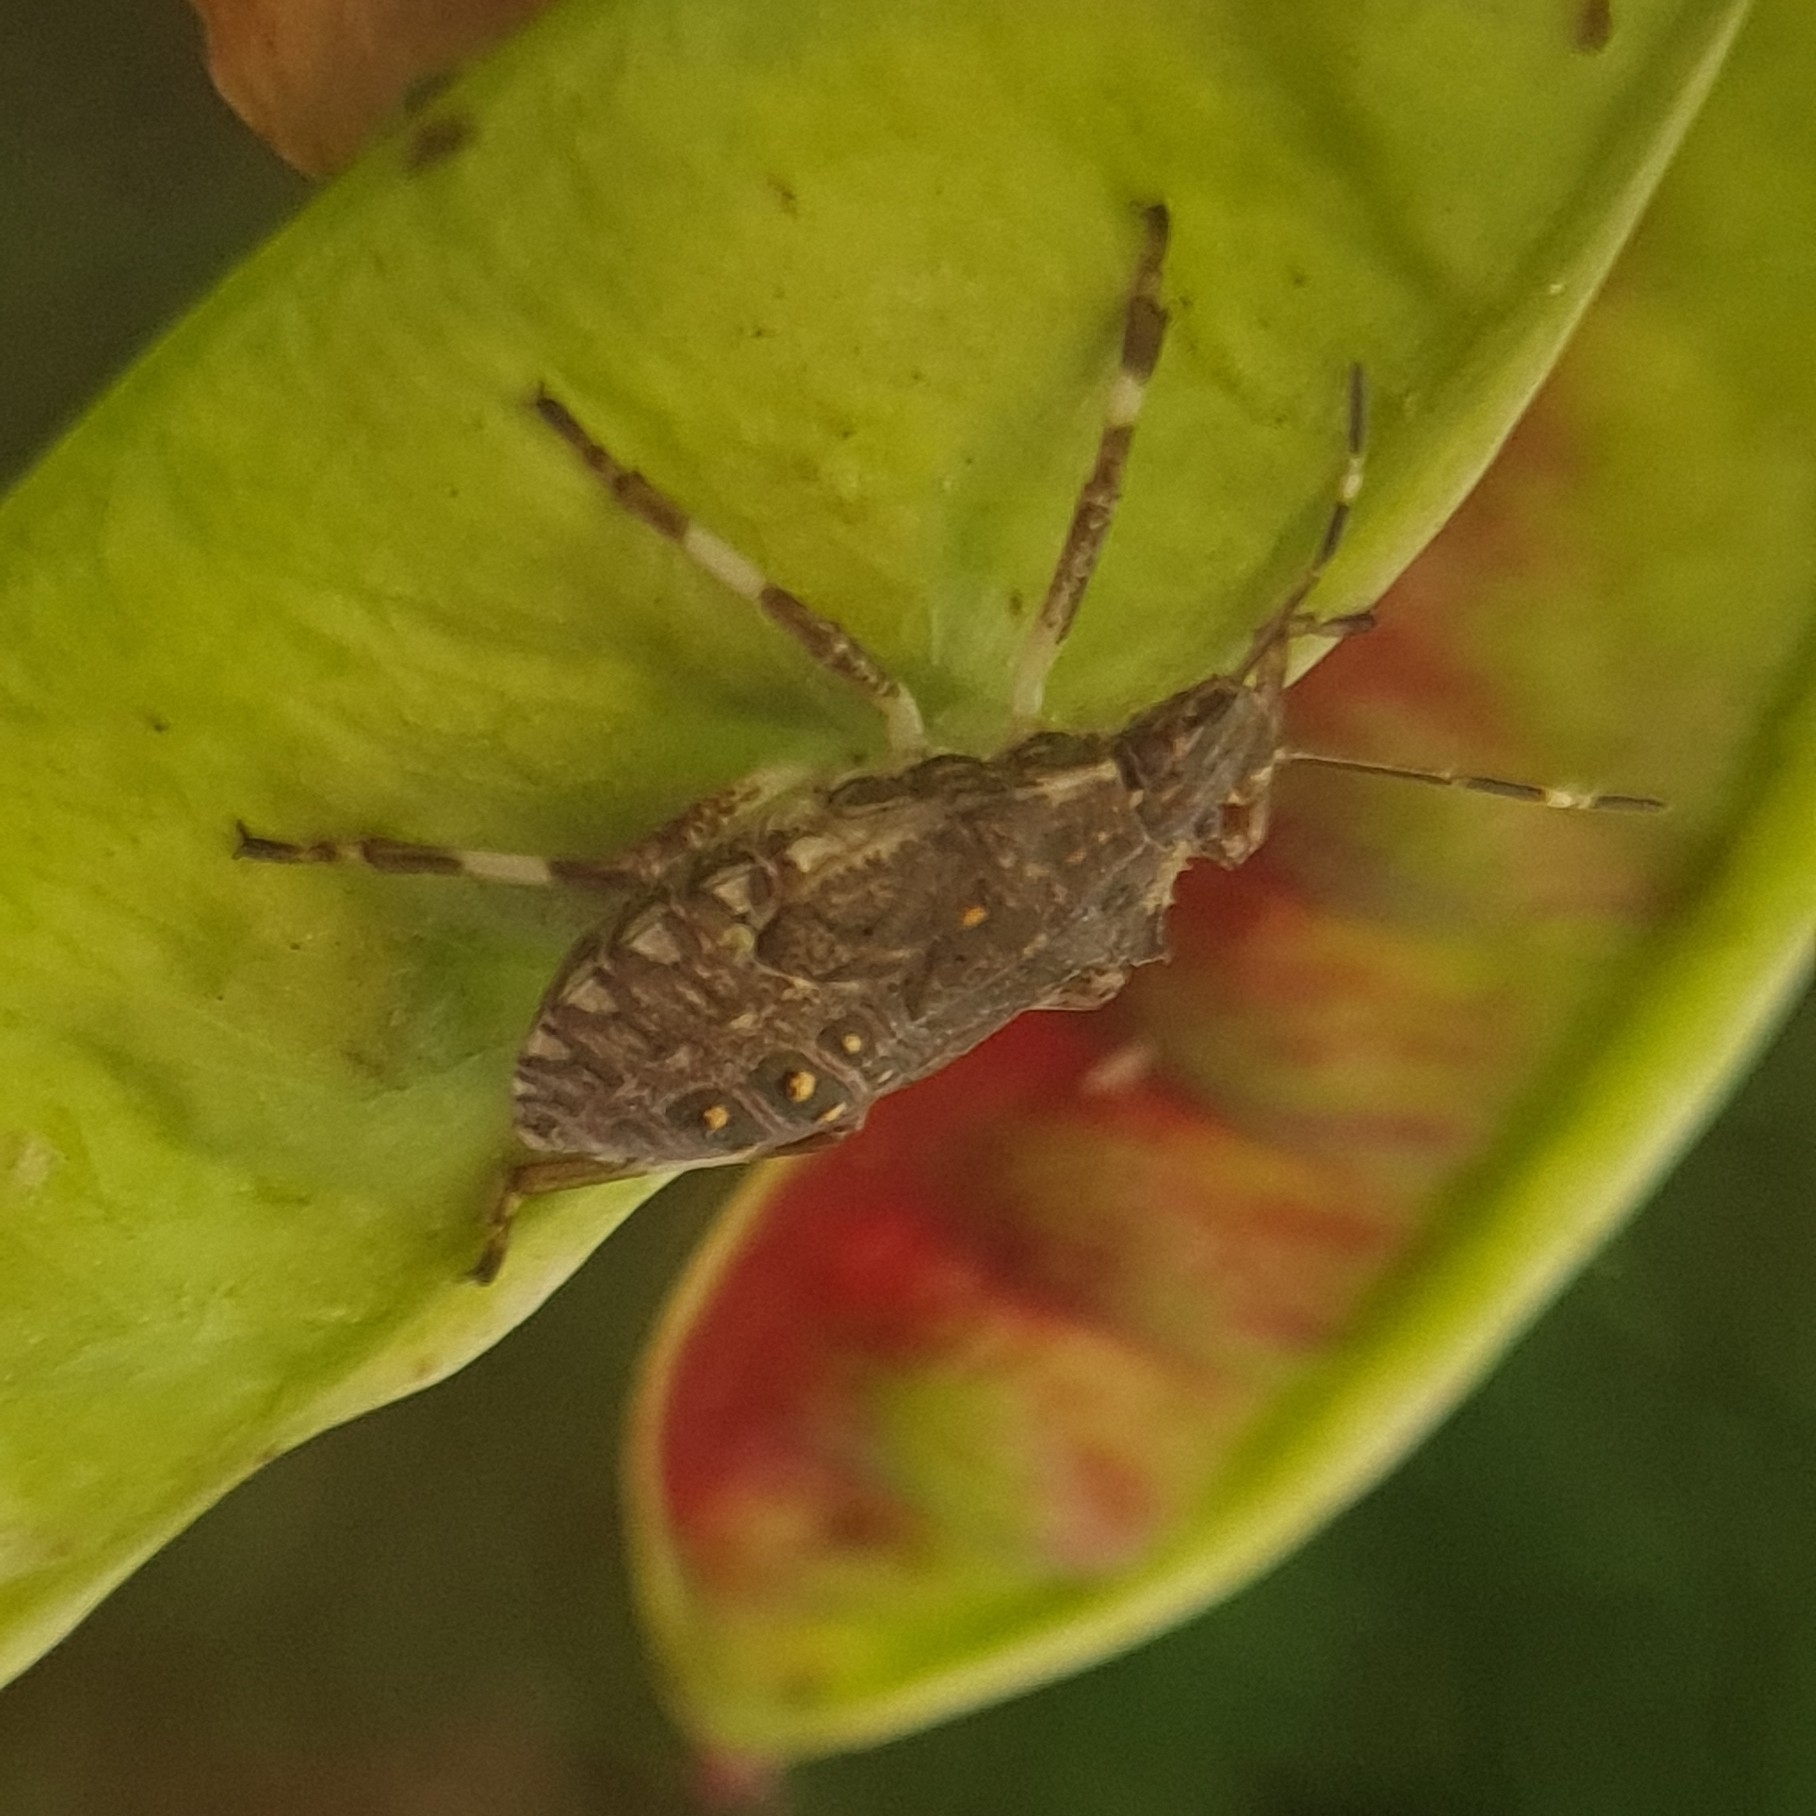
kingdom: Animalia
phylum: Arthropoda
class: Insecta
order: Hemiptera
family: Pentatomidae
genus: Halyomorpha
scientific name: Halyomorpha halys
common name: Brown marmorated stink bug
